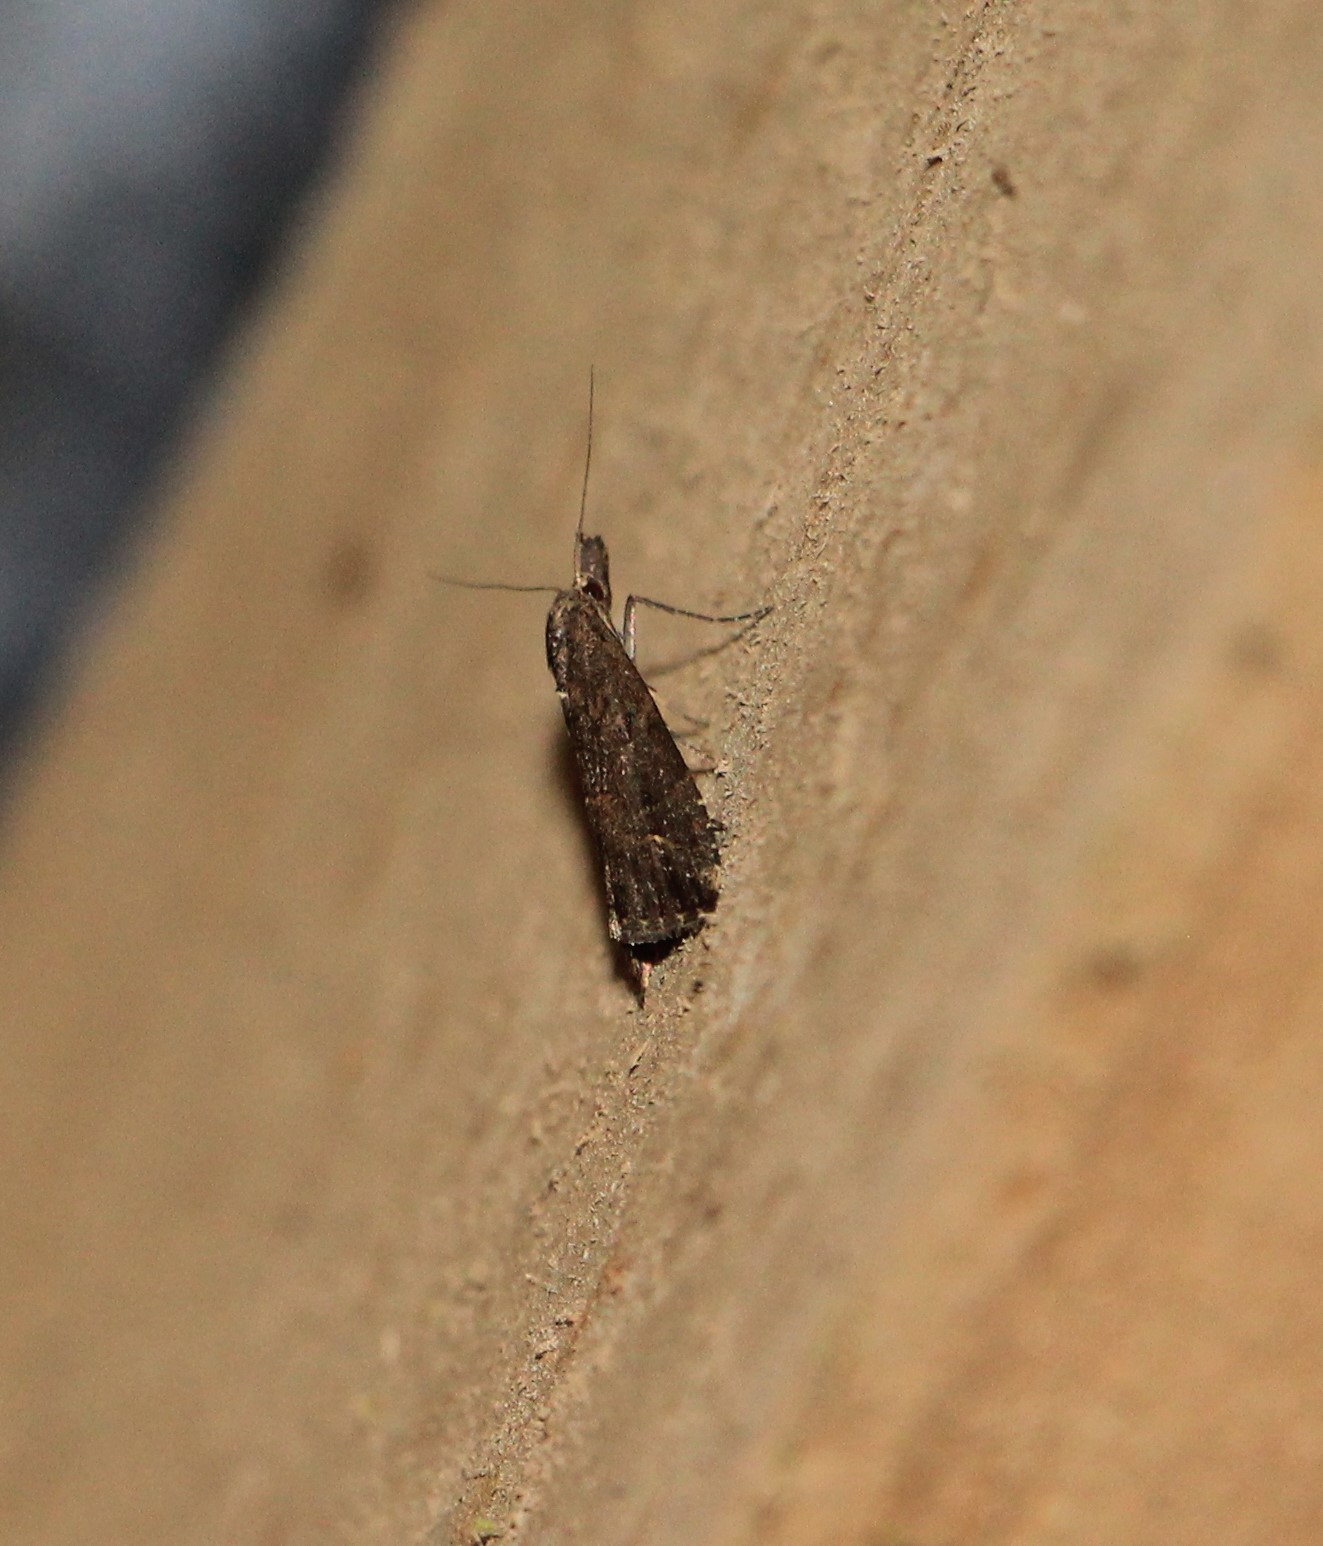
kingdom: Animalia
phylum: Arthropoda
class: Insecta
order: Lepidoptera
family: Erebidae
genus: Schrankia
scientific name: Schrankia costaestrigalis
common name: Pinion-streaked snout
